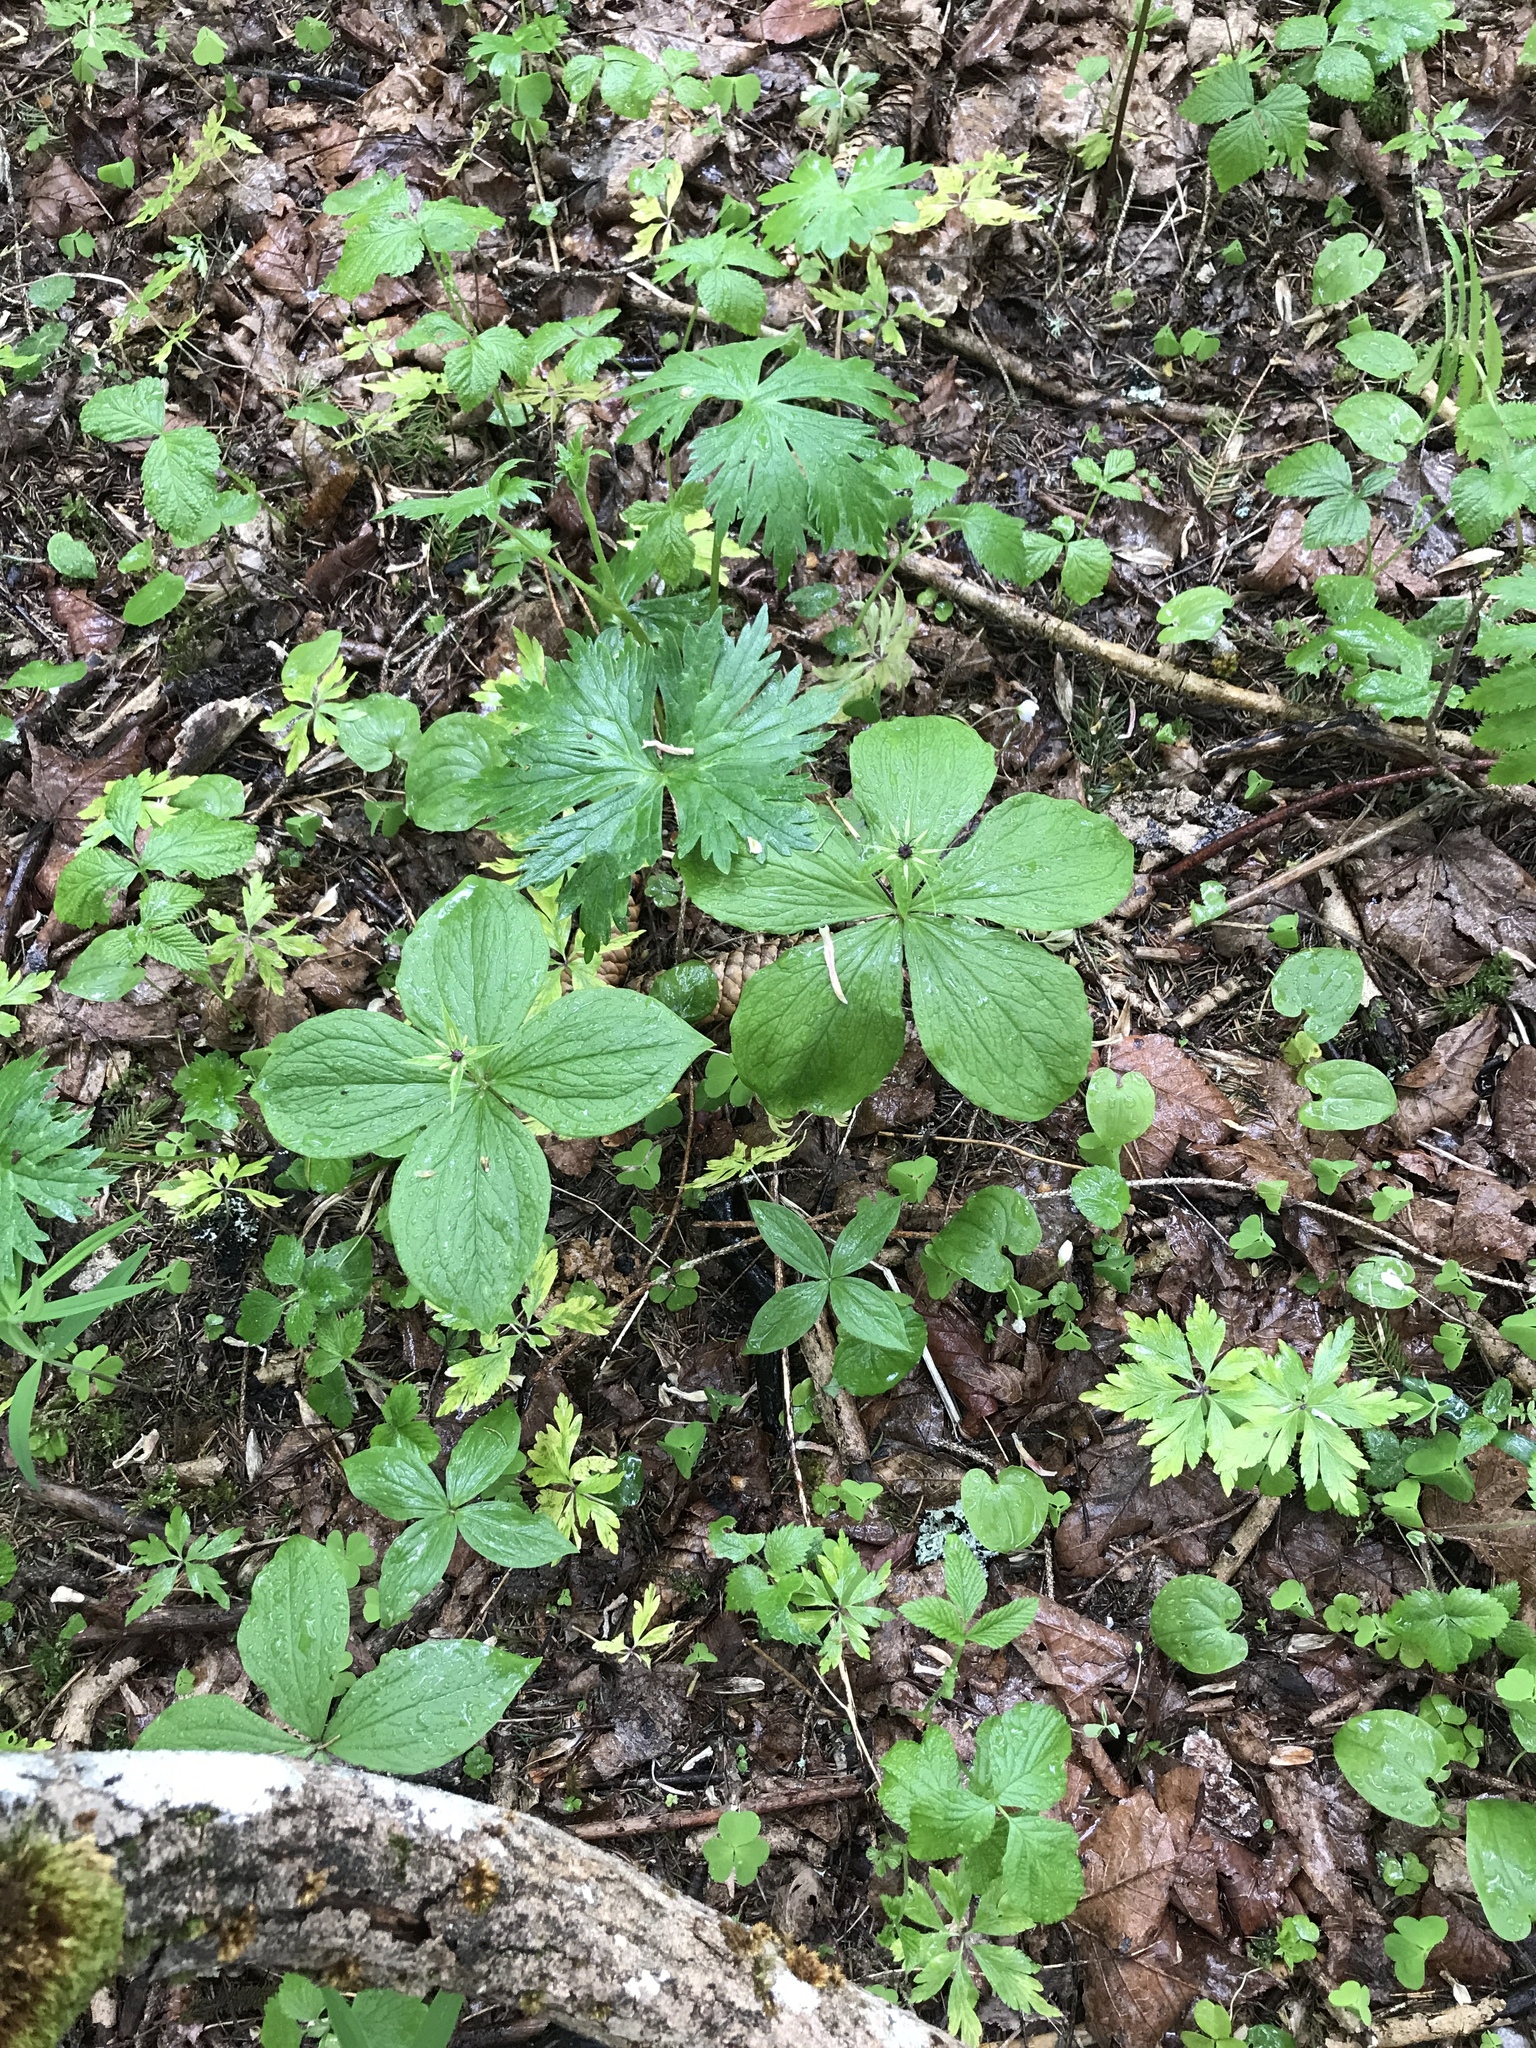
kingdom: Plantae
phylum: Tracheophyta
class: Liliopsida
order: Liliales
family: Melanthiaceae
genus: Paris
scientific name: Paris quadrifolia
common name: Herb-paris
